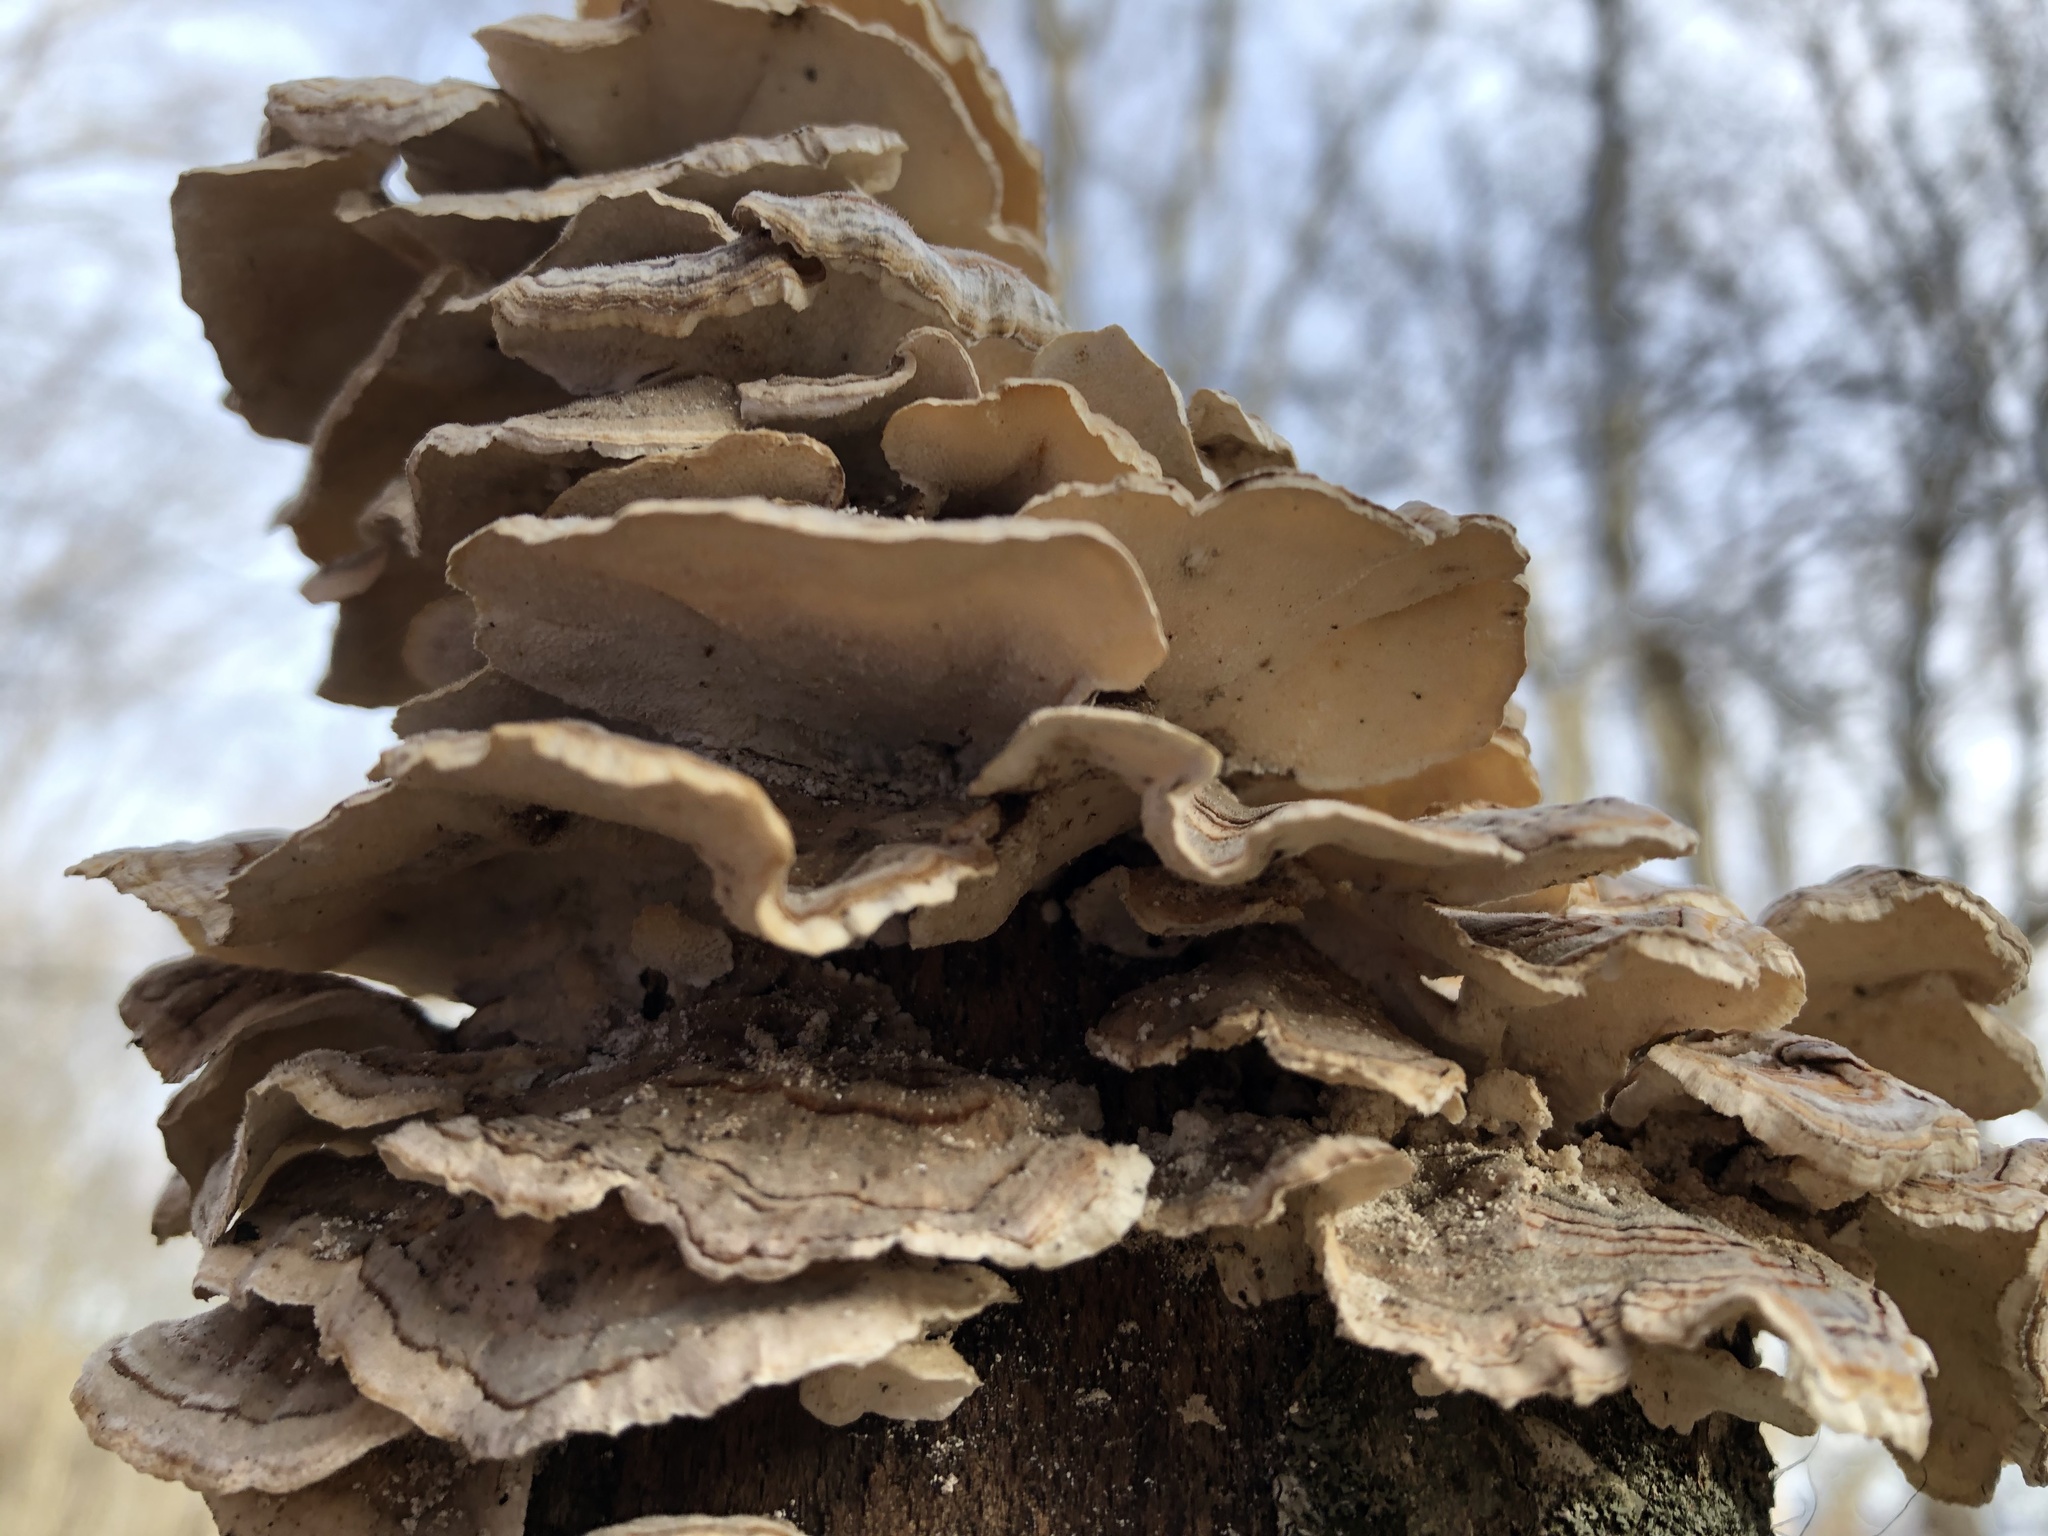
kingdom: Fungi
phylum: Basidiomycota
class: Agaricomycetes
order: Polyporales
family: Polyporaceae
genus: Trametes
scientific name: Trametes versicolor
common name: Turkeytail
